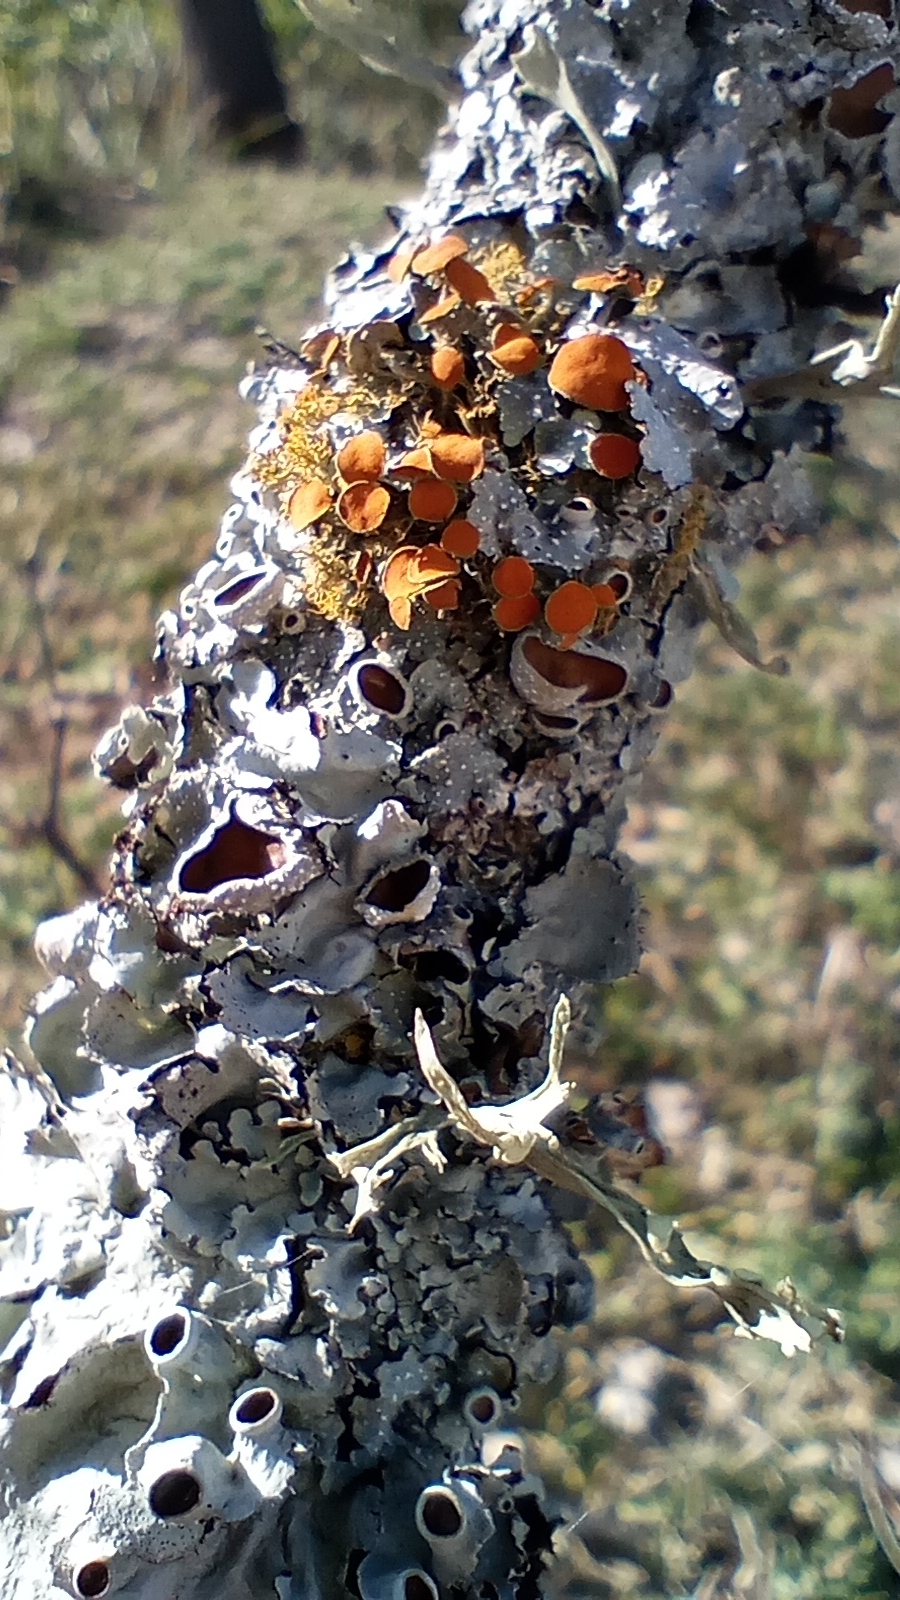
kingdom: Fungi
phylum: Ascomycota
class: Lecanoromycetes
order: Teloschistales
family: Teloschistaceae
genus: Niorma
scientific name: Niorma chrysophthalma
